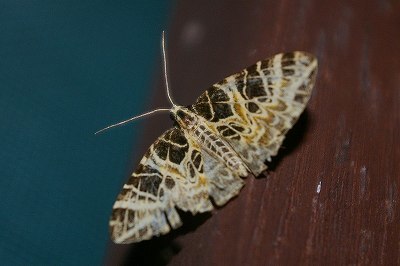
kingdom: Animalia
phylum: Arthropoda
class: Insecta
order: Lepidoptera
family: Geometridae
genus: Eustroma
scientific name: Eustroma japonicum
